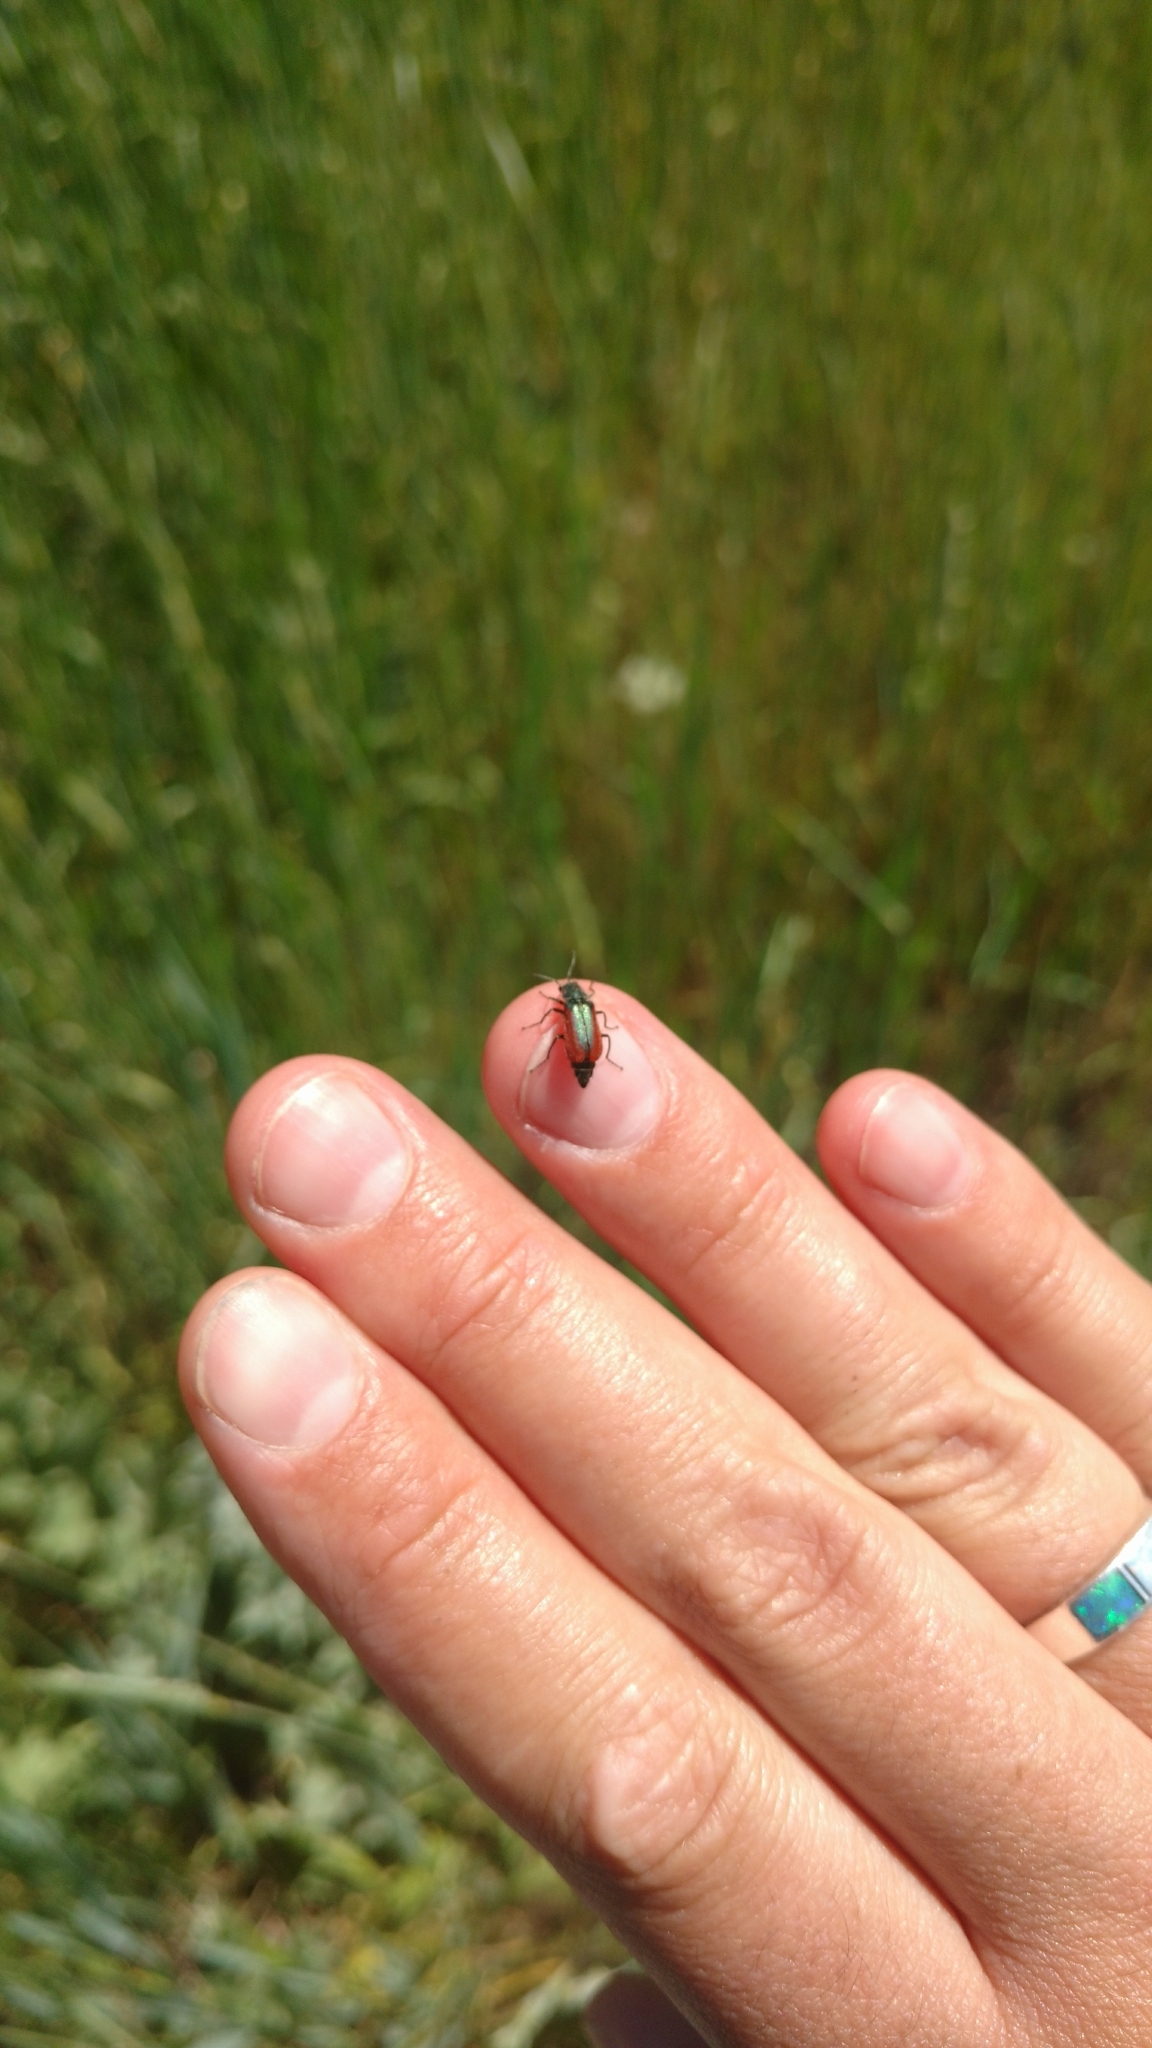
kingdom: Animalia
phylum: Arthropoda
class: Insecta
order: Coleoptera
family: Melyridae
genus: Malachius
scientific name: Malachius aeneus
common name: Scarlet malachite beetle
